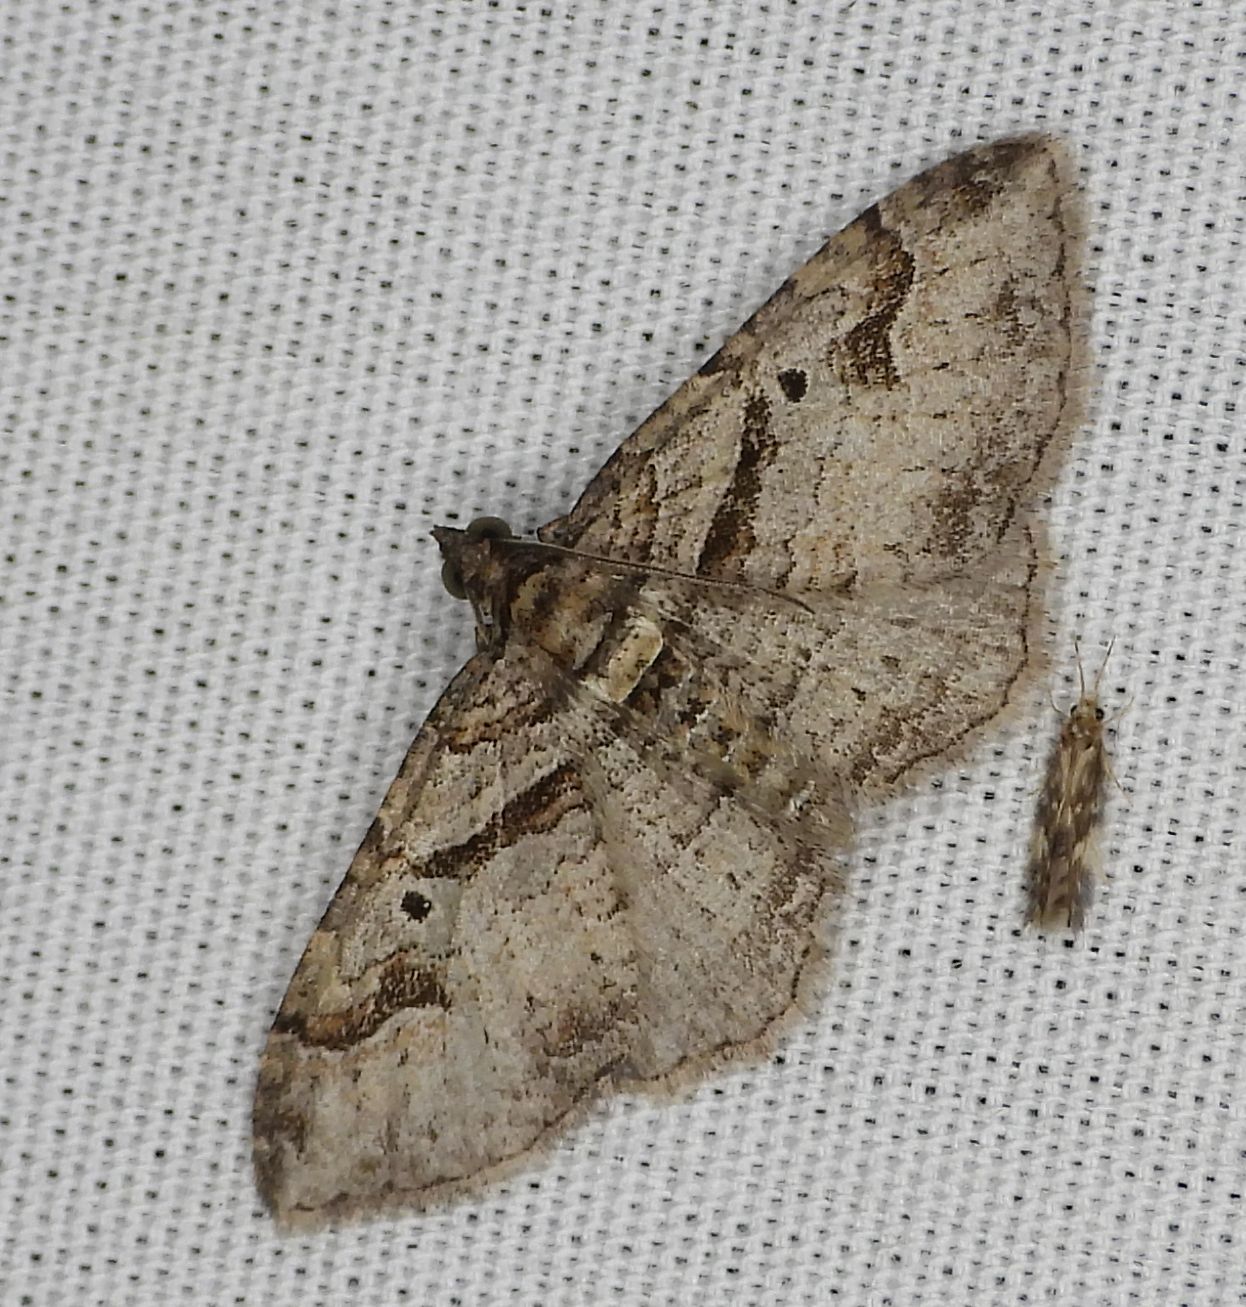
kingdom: Animalia
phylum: Arthropoda
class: Insecta
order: Lepidoptera
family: Geometridae
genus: Costaconvexa
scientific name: Costaconvexa centrostrigaria
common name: Bent-line carpet
